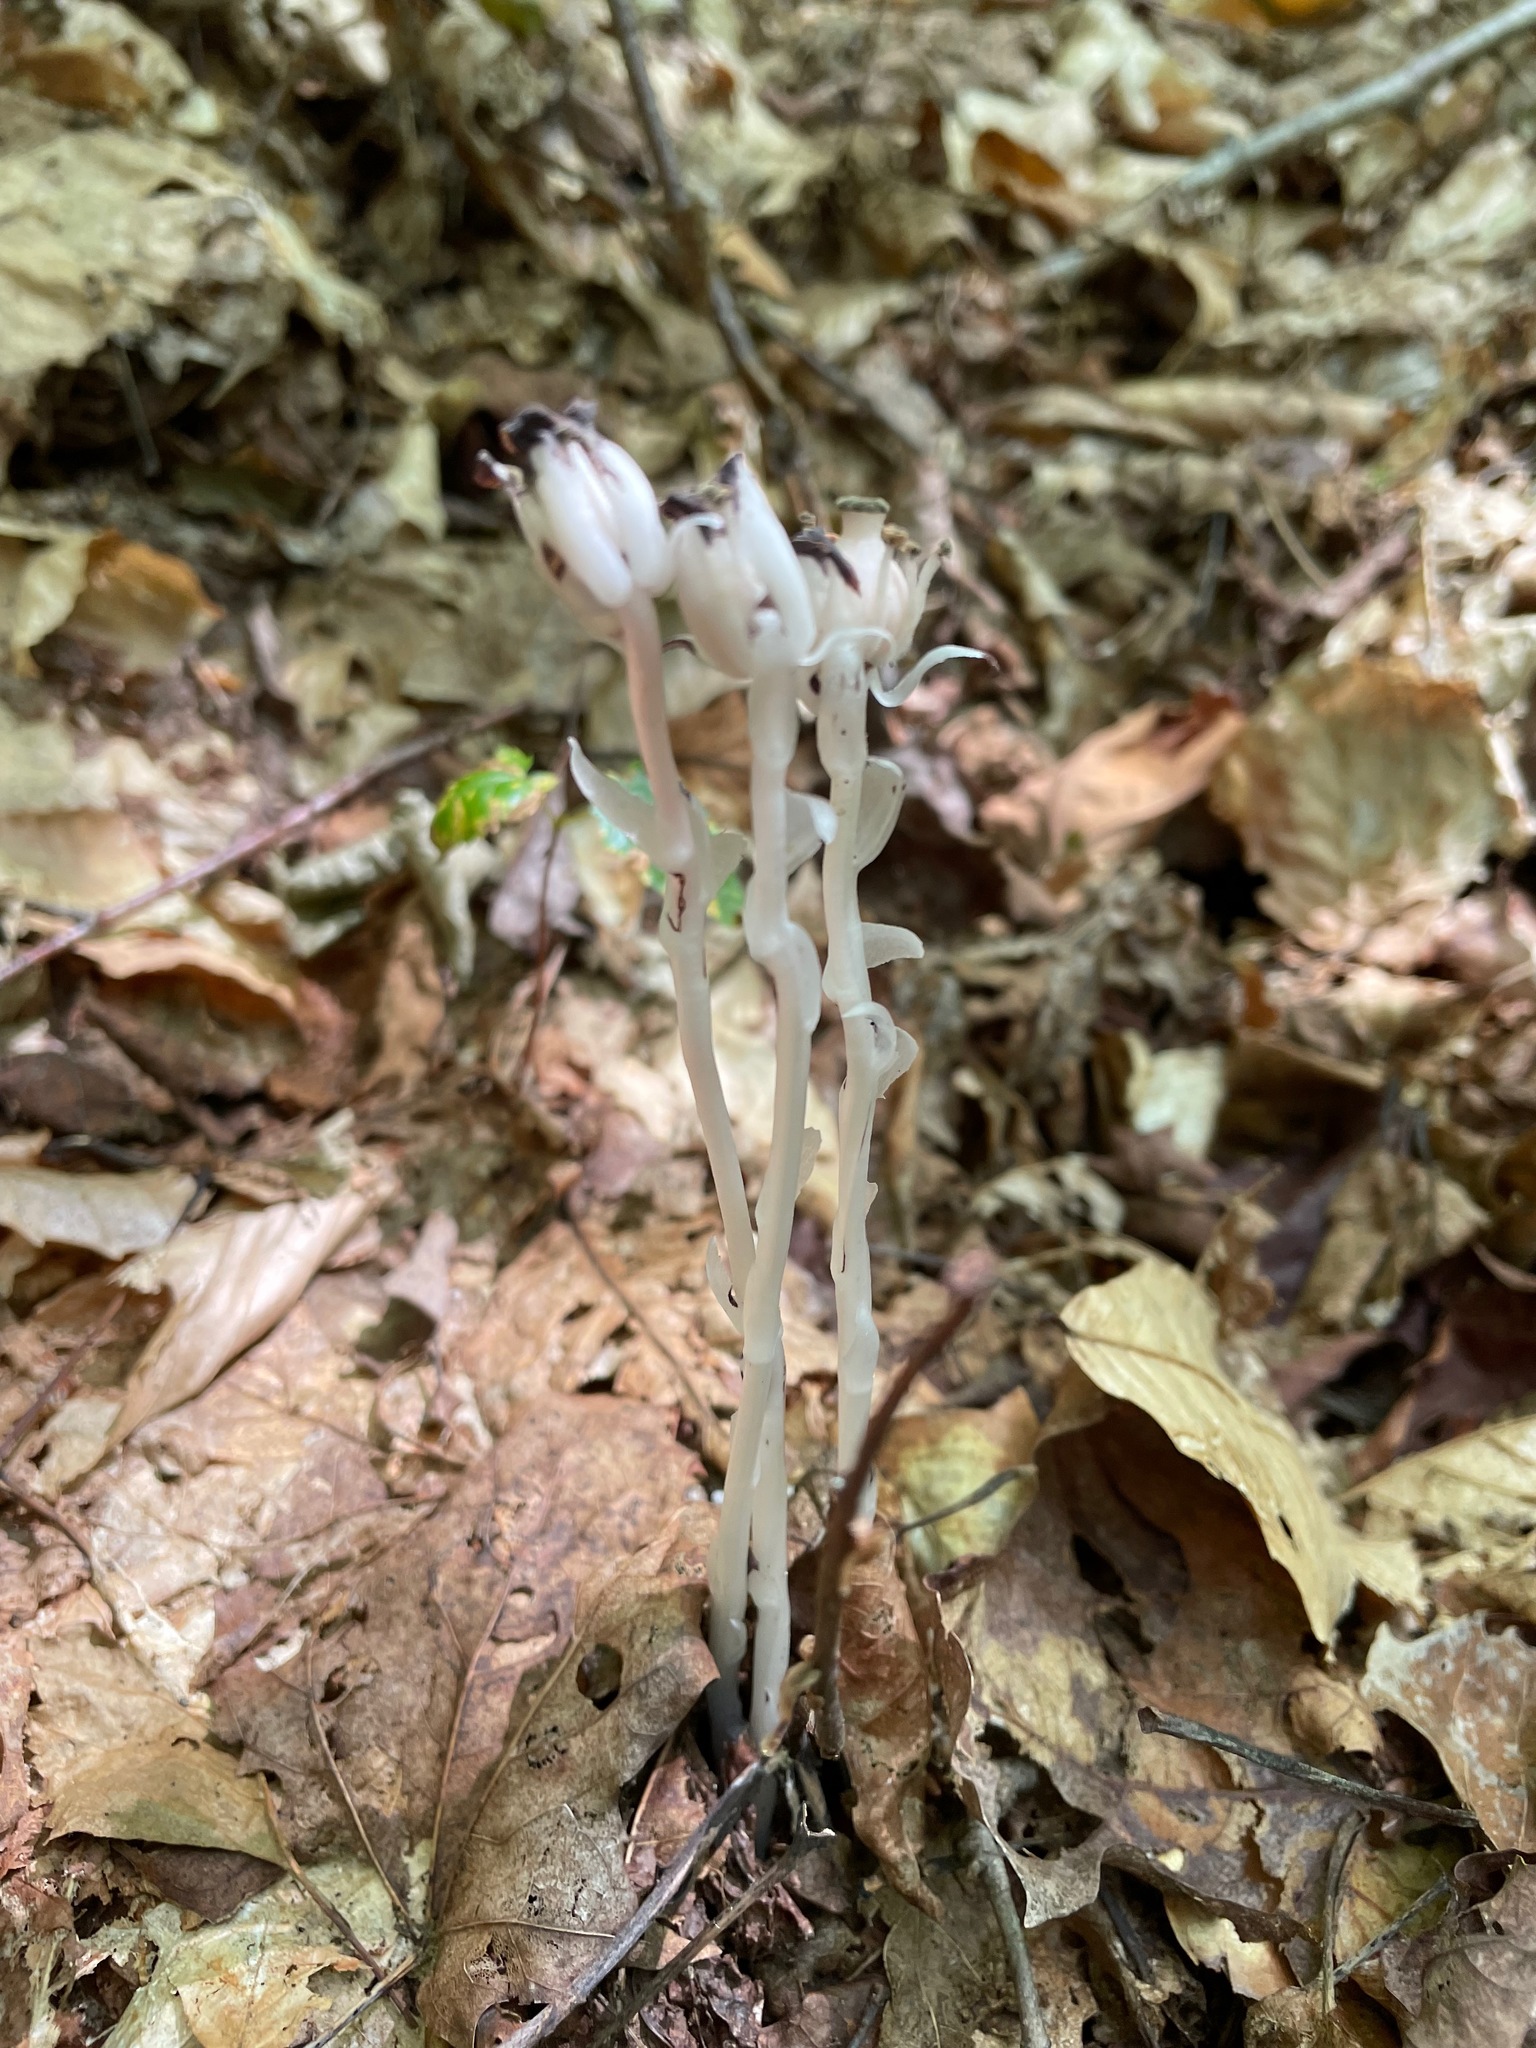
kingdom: Plantae
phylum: Tracheophyta
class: Magnoliopsida
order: Ericales
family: Ericaceae
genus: Monotropa
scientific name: Monotropa uniflora
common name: Convulsion root
